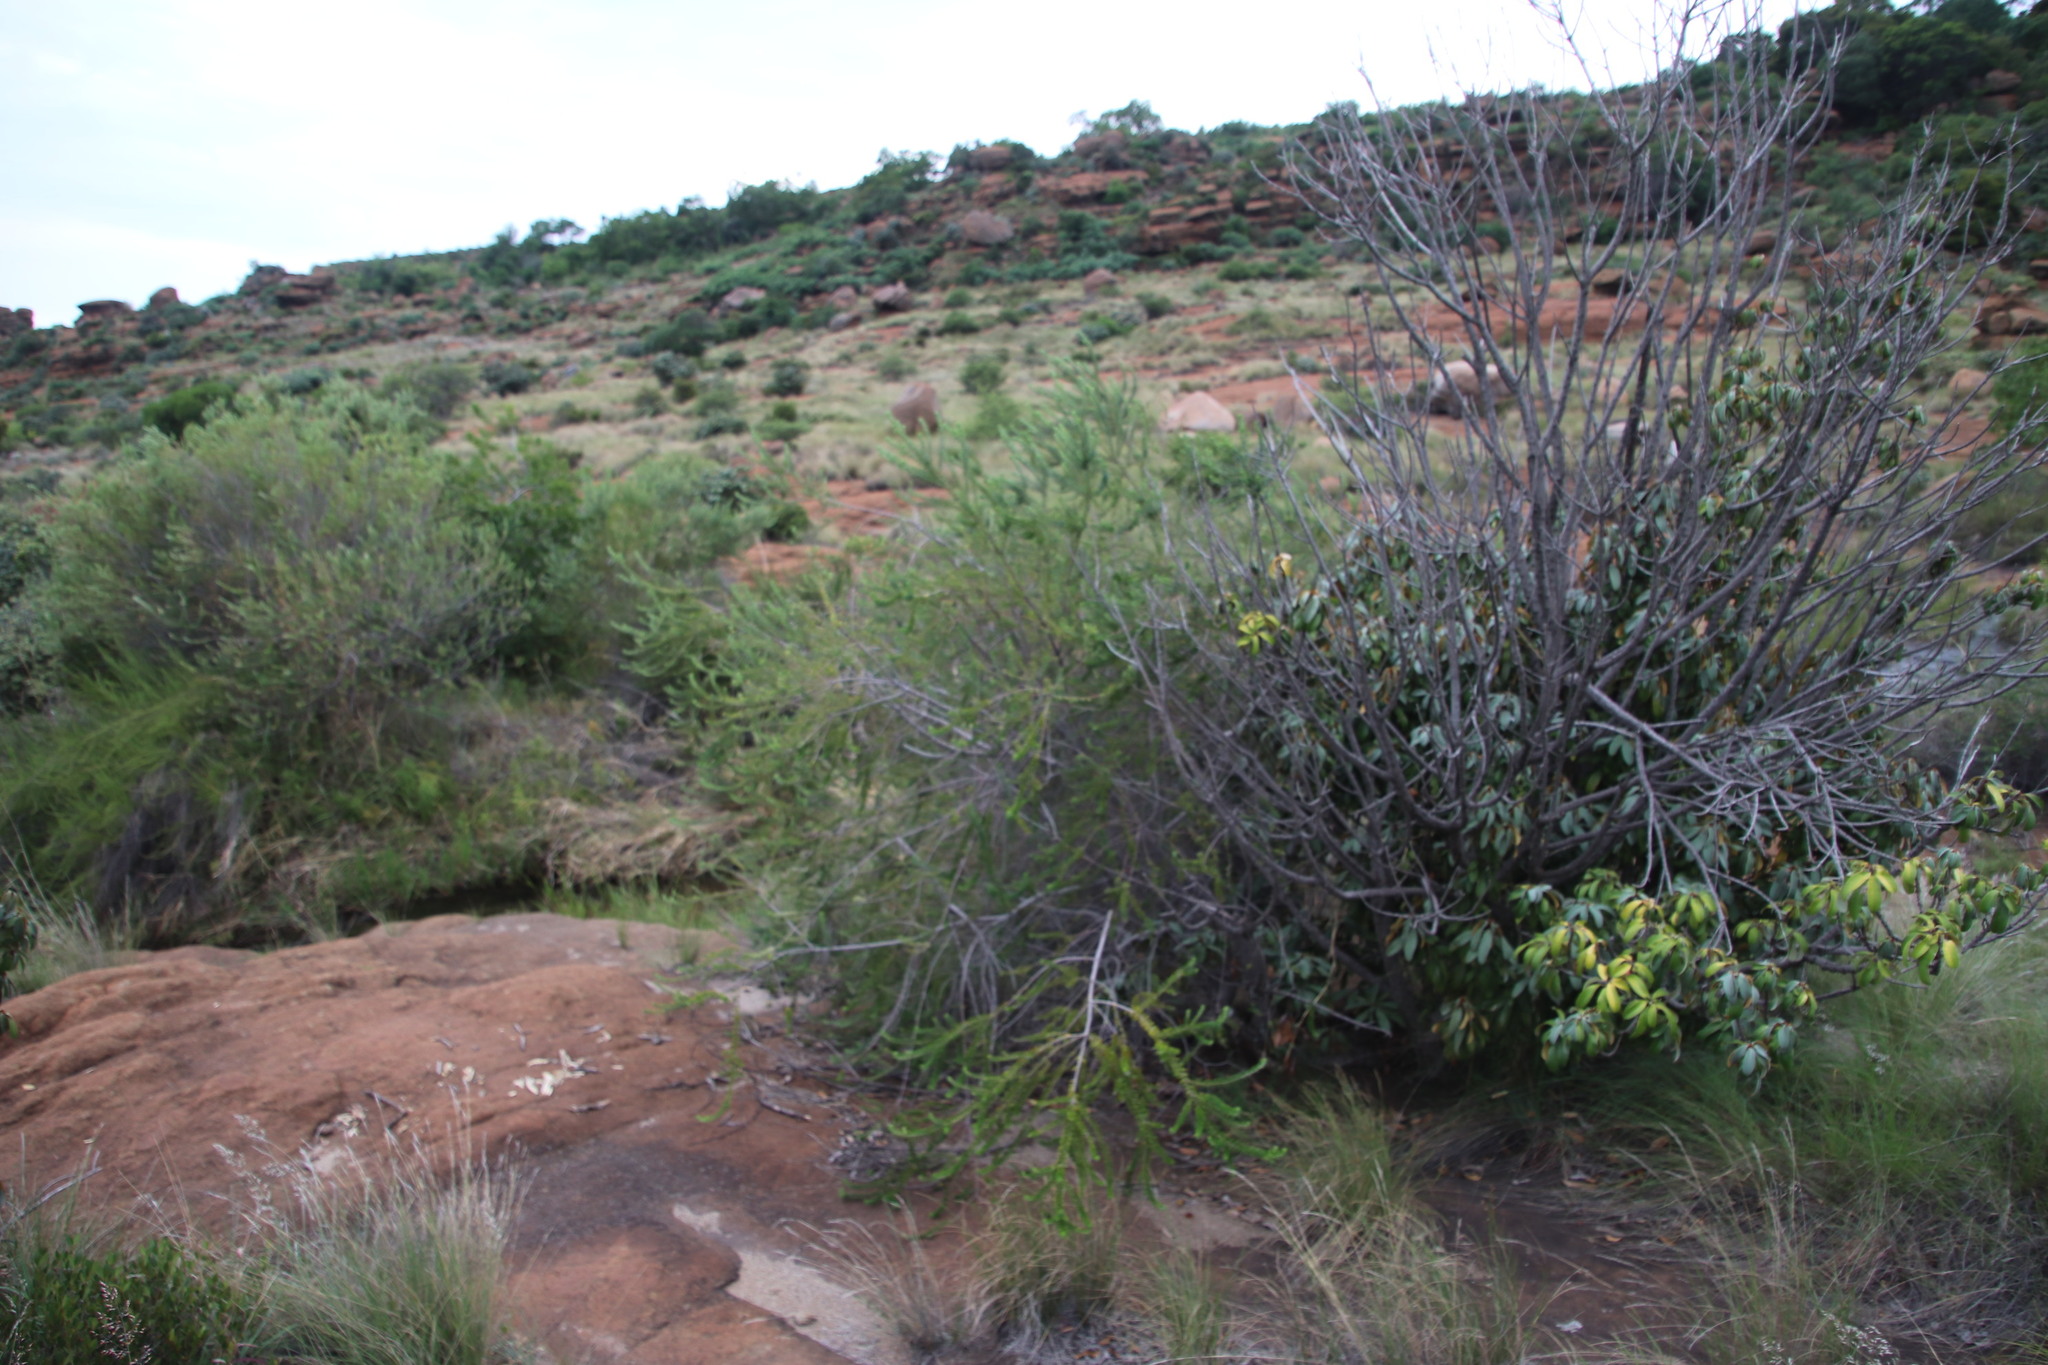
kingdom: Plantae
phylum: Tracheophyta
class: Magnoliopsida
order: Rosales
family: Rhamnaceae
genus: Phylica
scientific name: Phylica paniculata
